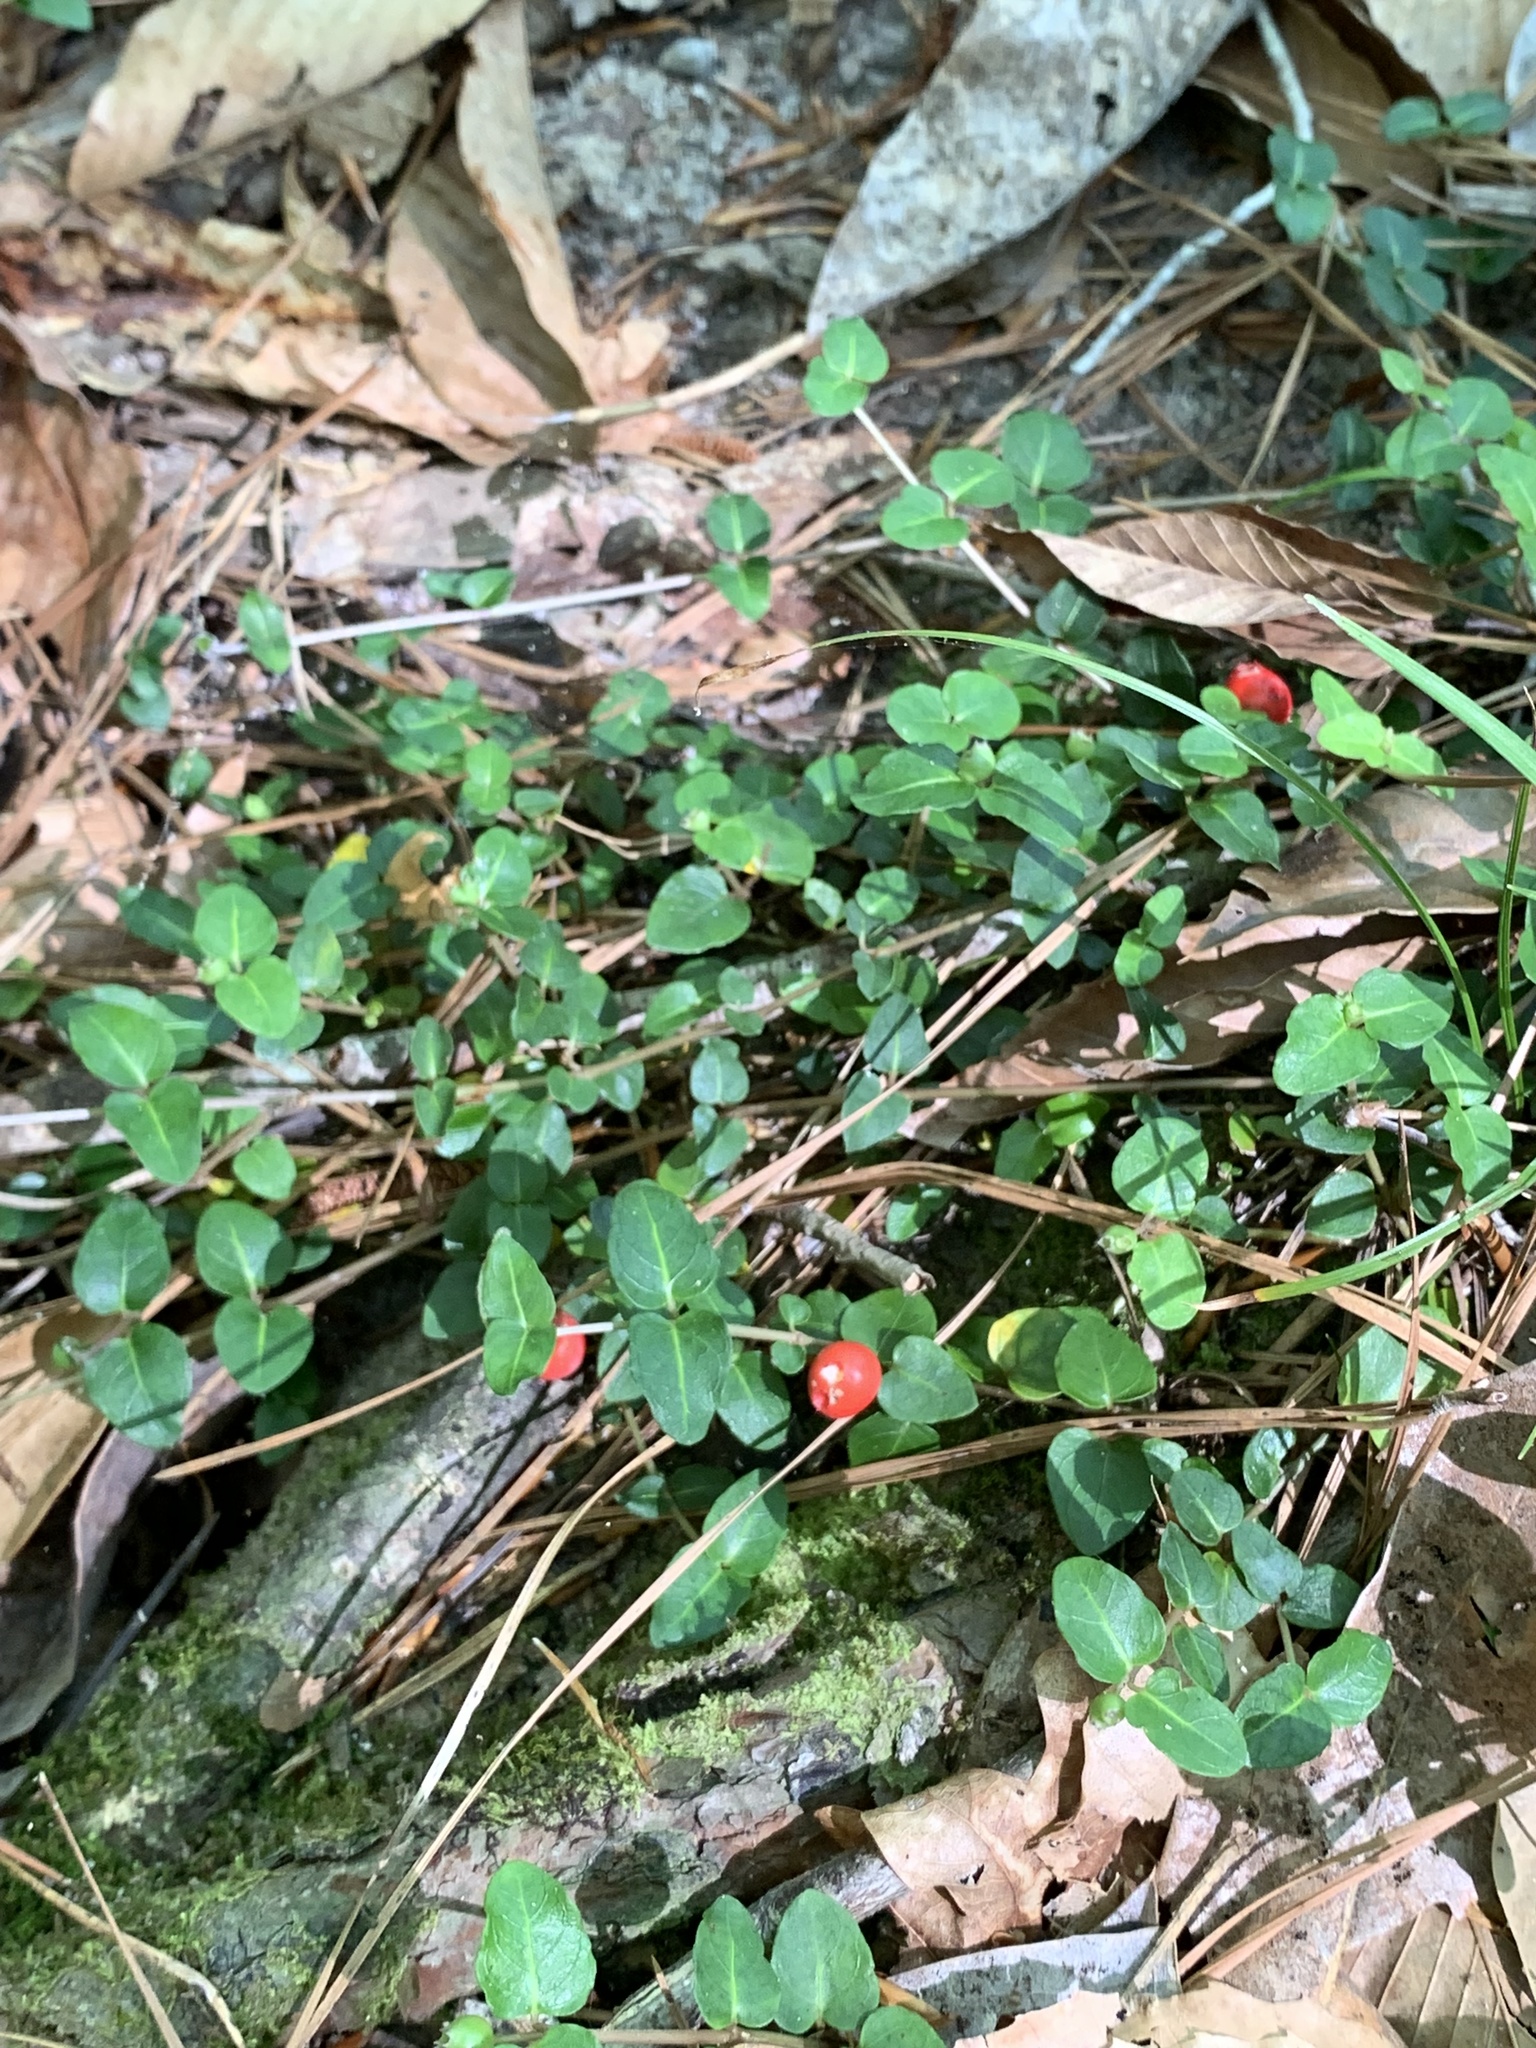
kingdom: Plantae
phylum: Tracheophyta
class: Magnoliopsida
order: Gentianales
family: Rubiaceae
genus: Mitchella
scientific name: Mitchella repens
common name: Partridge-berry
